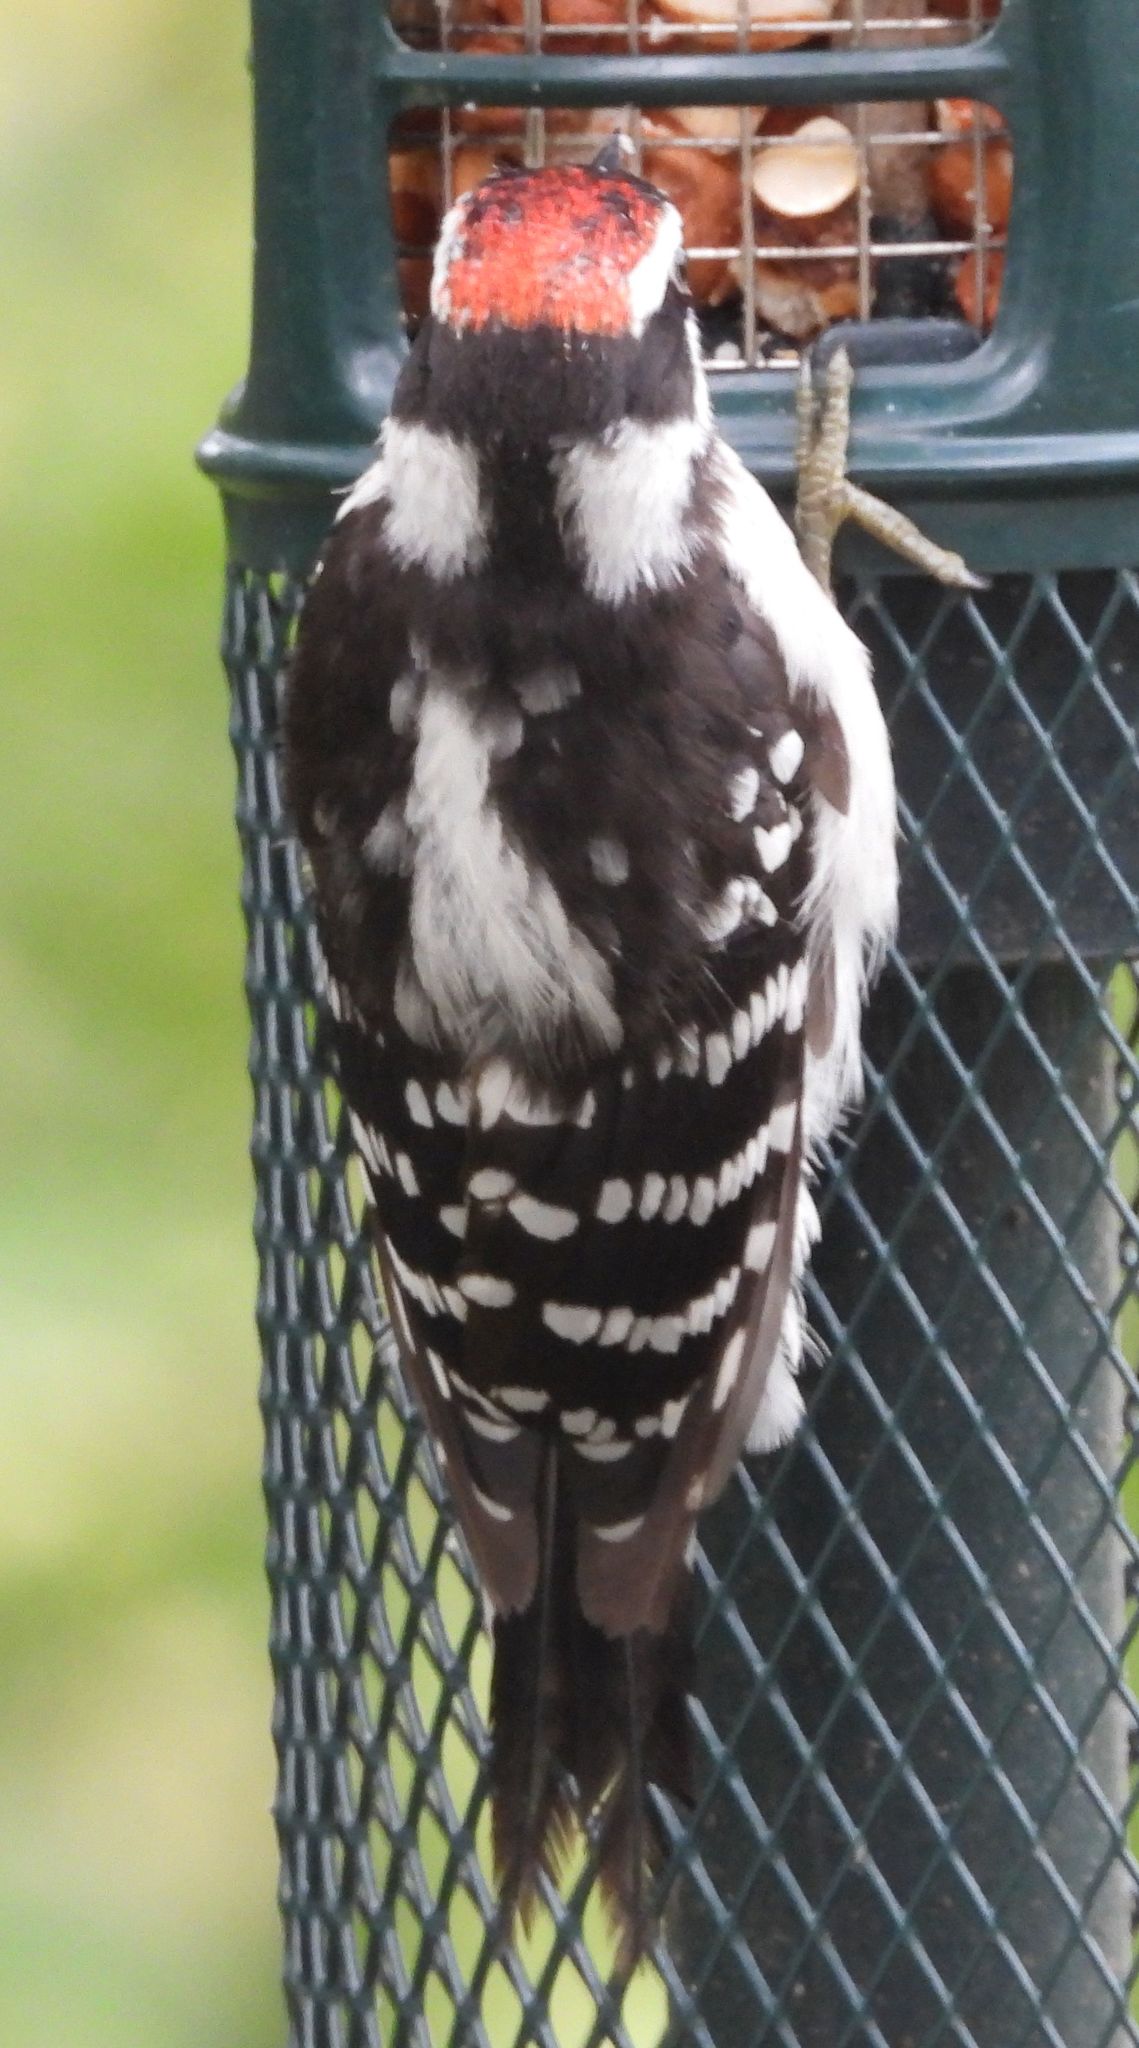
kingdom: Animalia
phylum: Chordata
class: Aves
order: Piciformes
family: Picidae
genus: Dryobates
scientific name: Dryobates pubescens
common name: Downy woodpecker
